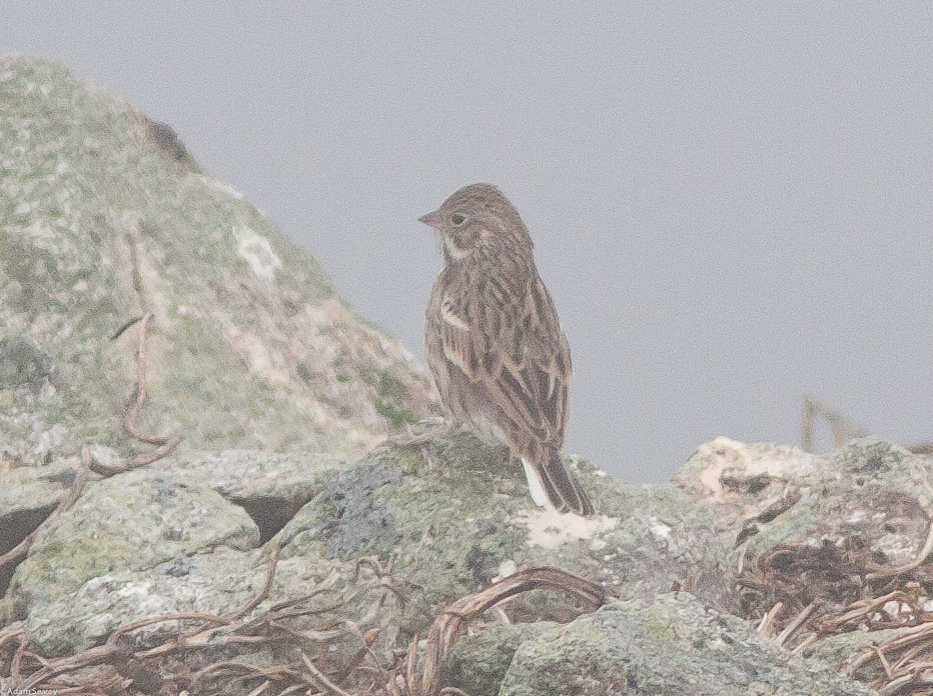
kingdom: Animalia
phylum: Chordata
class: Aves
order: Passeriformes
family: Passerellidae
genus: Pooecetes
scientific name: Pooecetes gramineus
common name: Vesper sparrow
